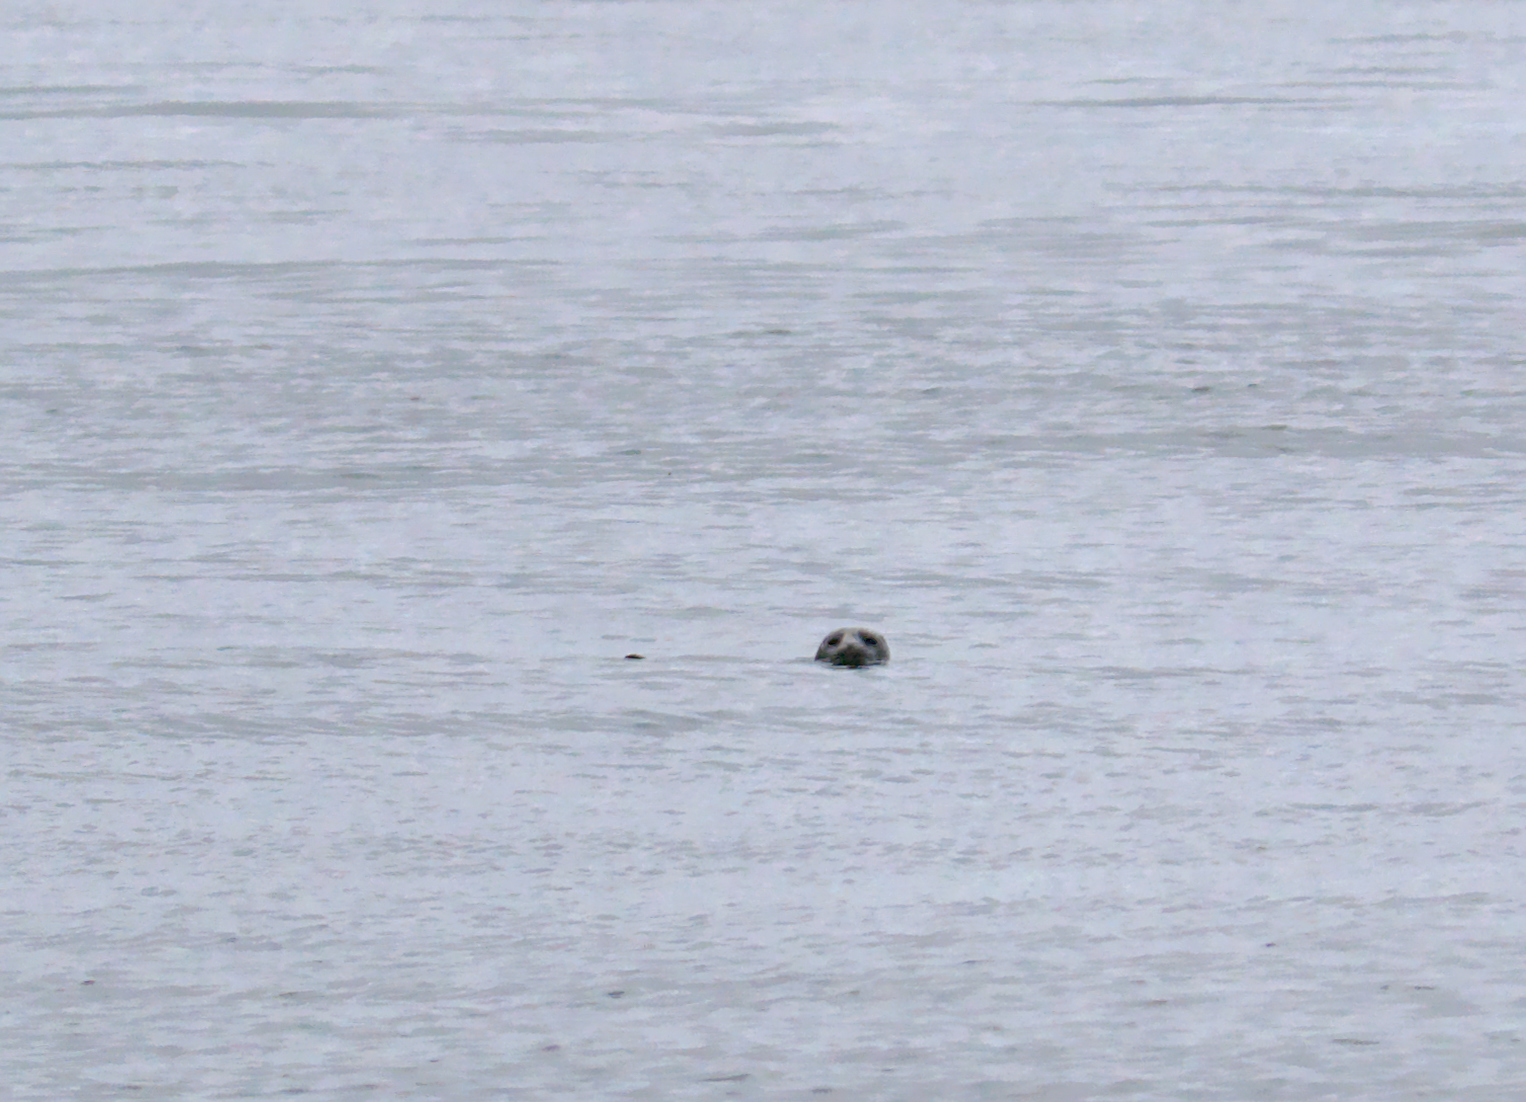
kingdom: Animalia
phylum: Chordata
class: Mammalia
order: Carnivora
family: Phocidae
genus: Phoca
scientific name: Phoca vitulina
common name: Harbor seal
